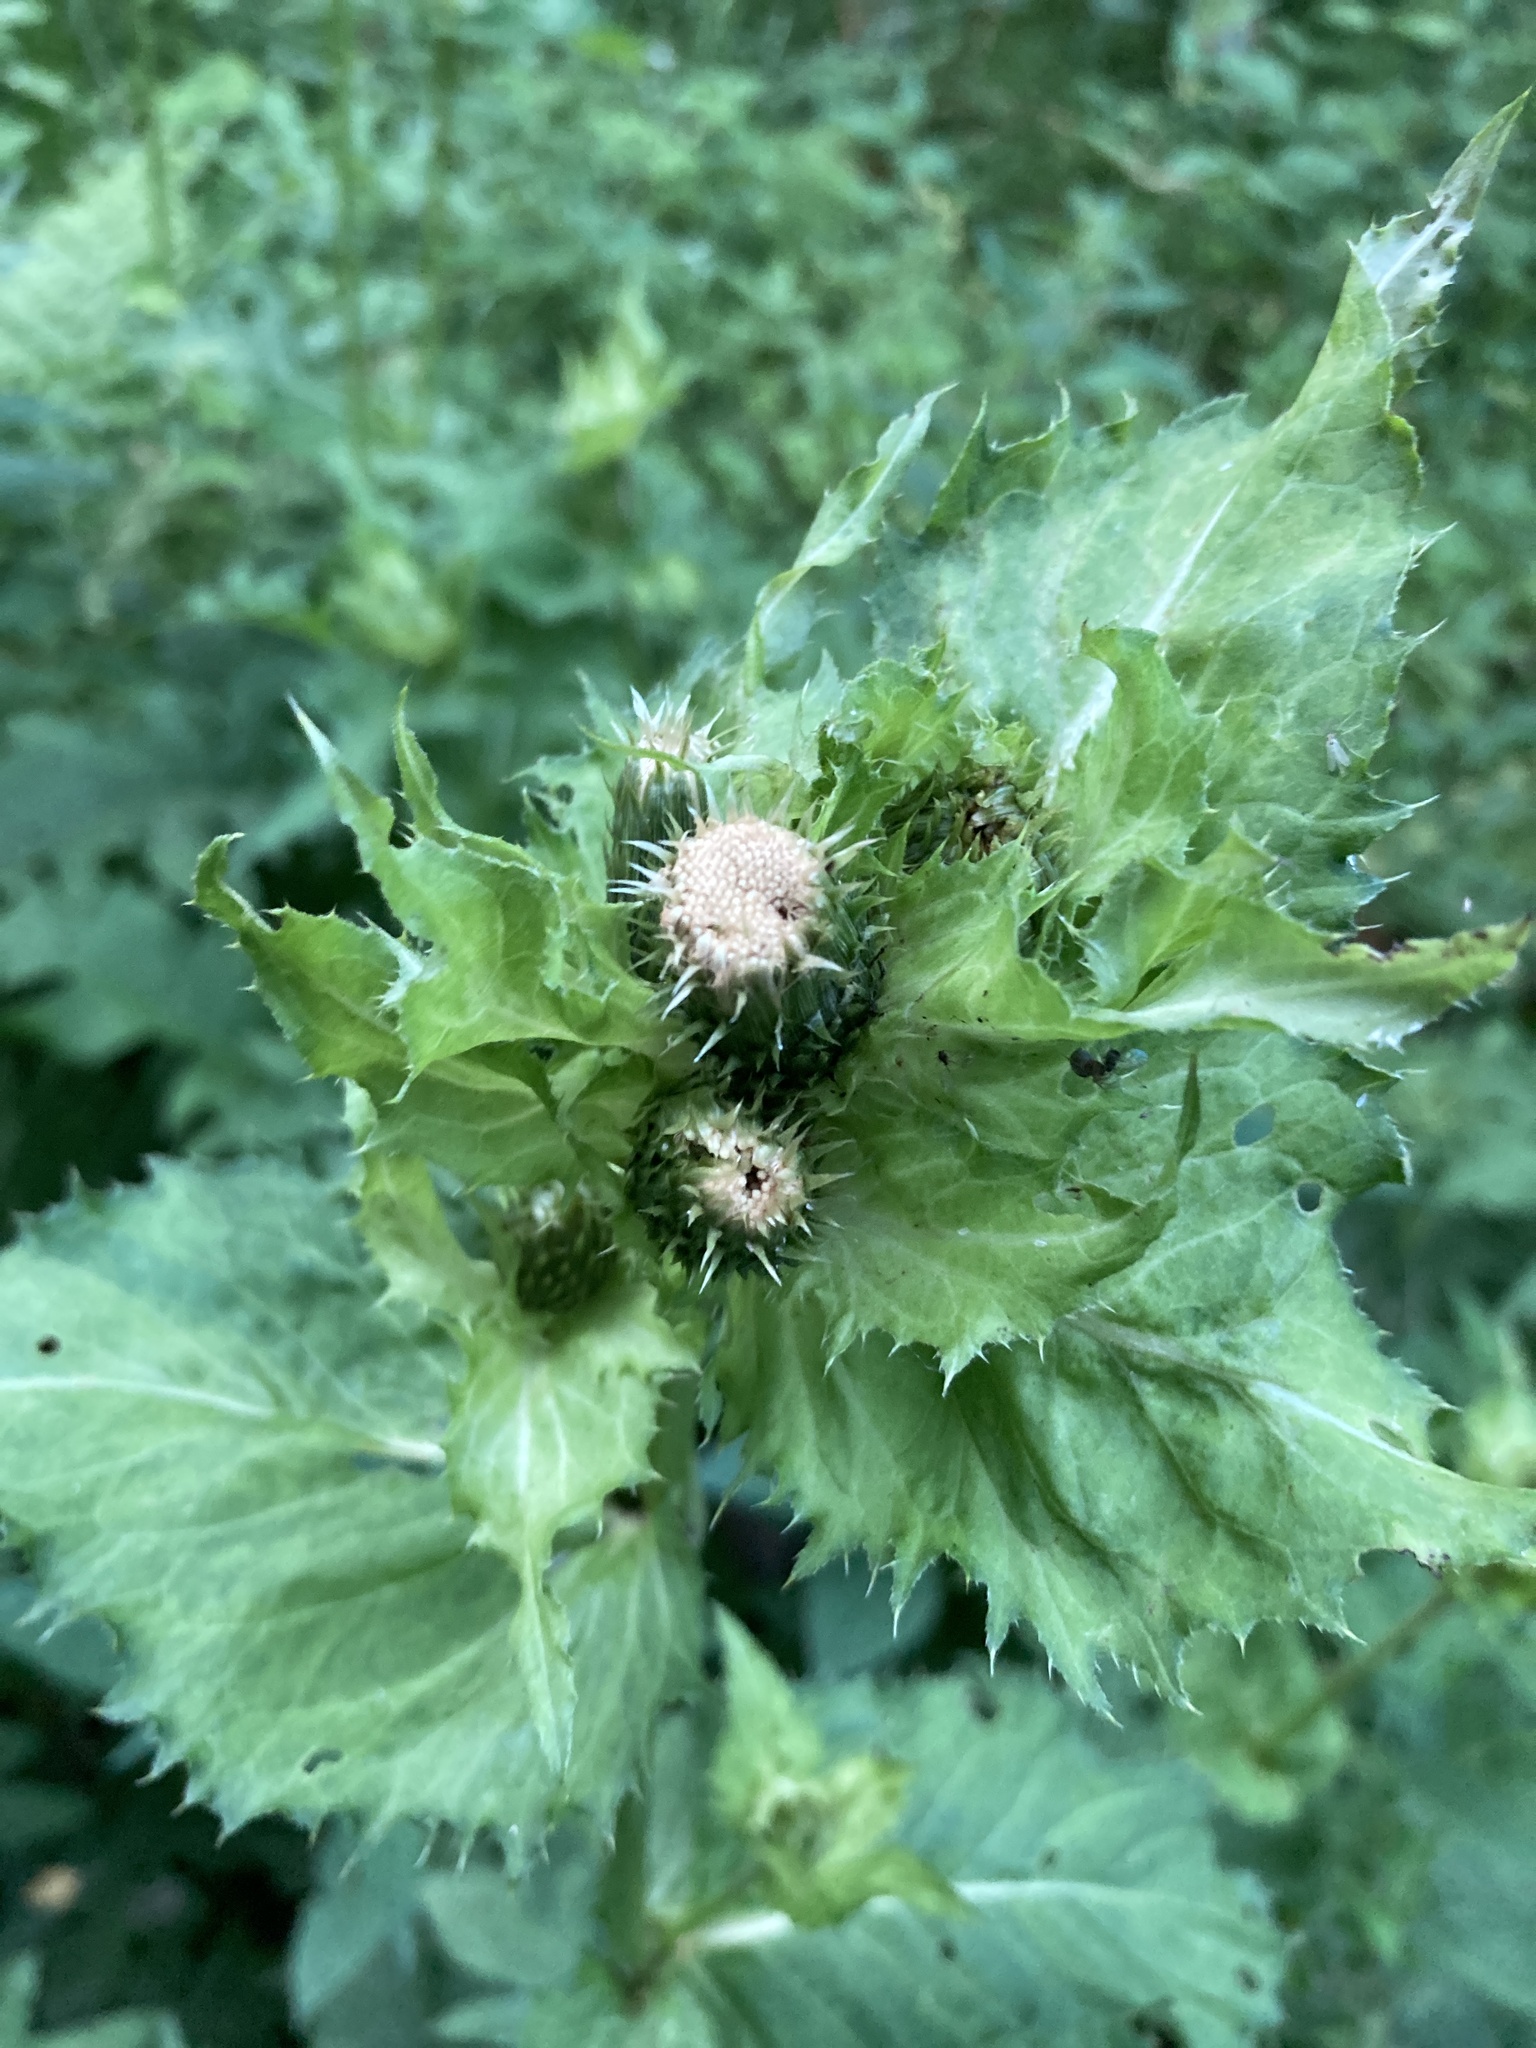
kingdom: Plantae
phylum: Tracheophyta
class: Magnoliopsida
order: Asterales
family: Asteraceae
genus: Cirsium
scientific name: Cirsium oleraceum
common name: Cabbage thistle
